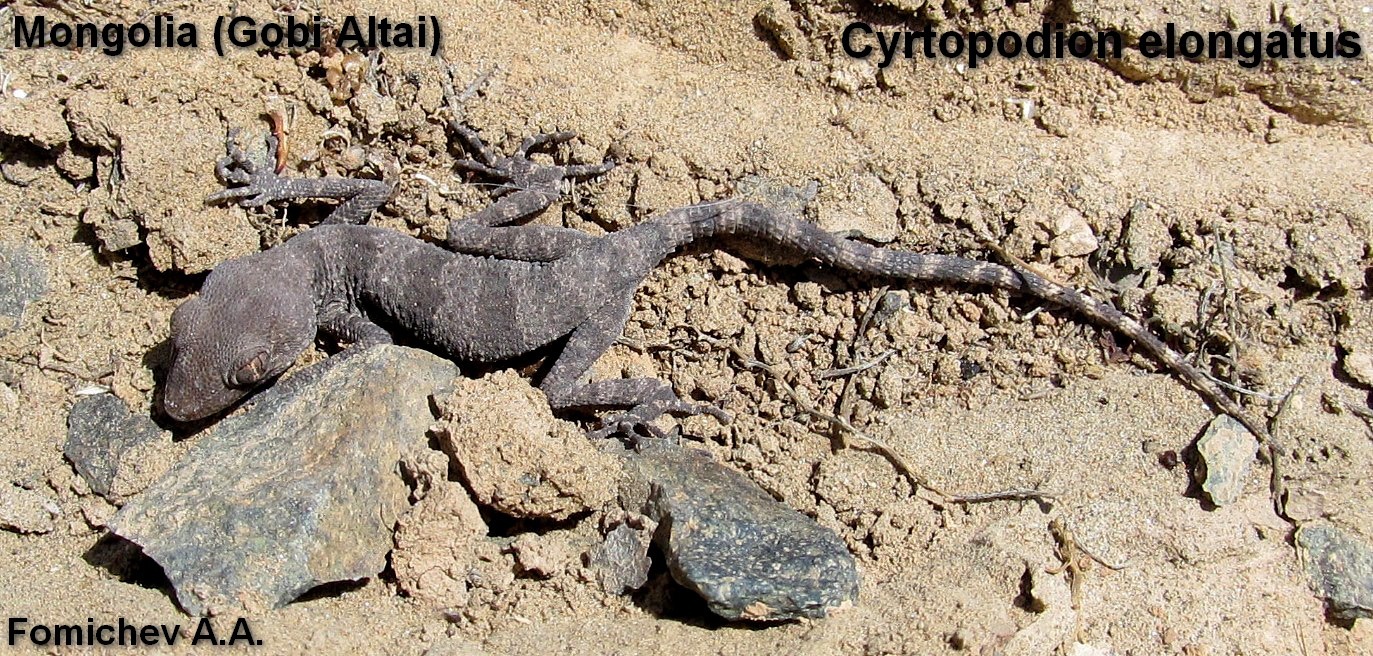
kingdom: Animalia
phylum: Chordata
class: Squamata
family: Gekkonidae
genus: Tenuidactylus
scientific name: Tenuidactylus elongatus
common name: Yangihissar gecko
